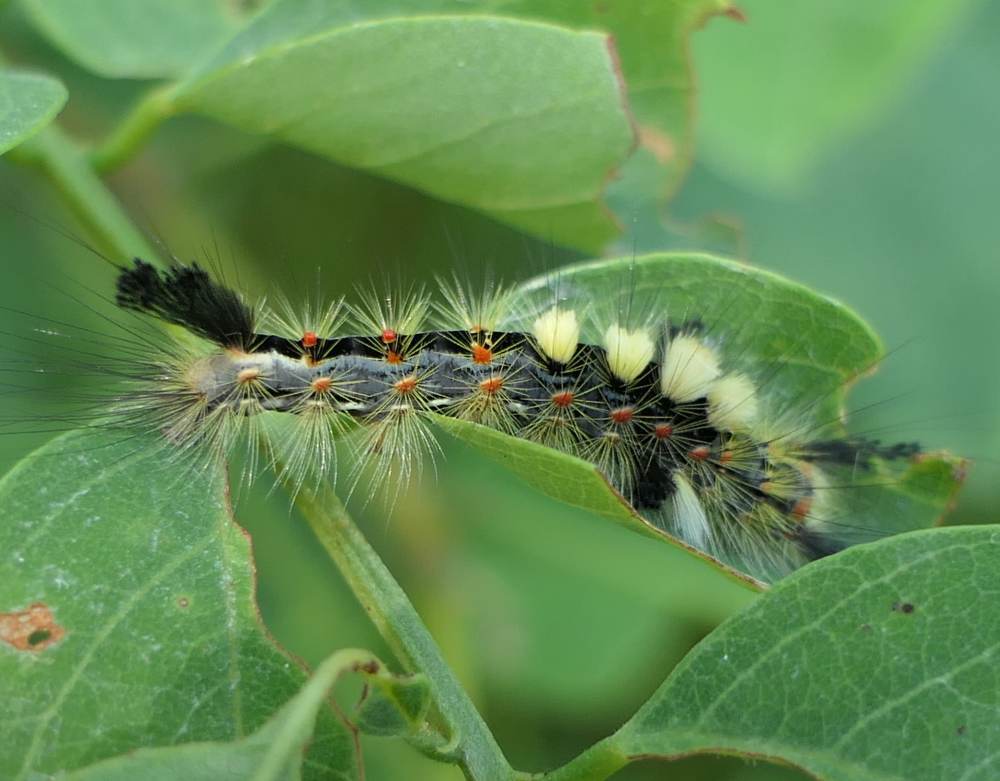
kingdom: Animalia
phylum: Arthropoda
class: Insecta
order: Lepidoptera
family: Erebidae
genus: Orgyia
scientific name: Orgyia antiqua
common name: Vapourer
